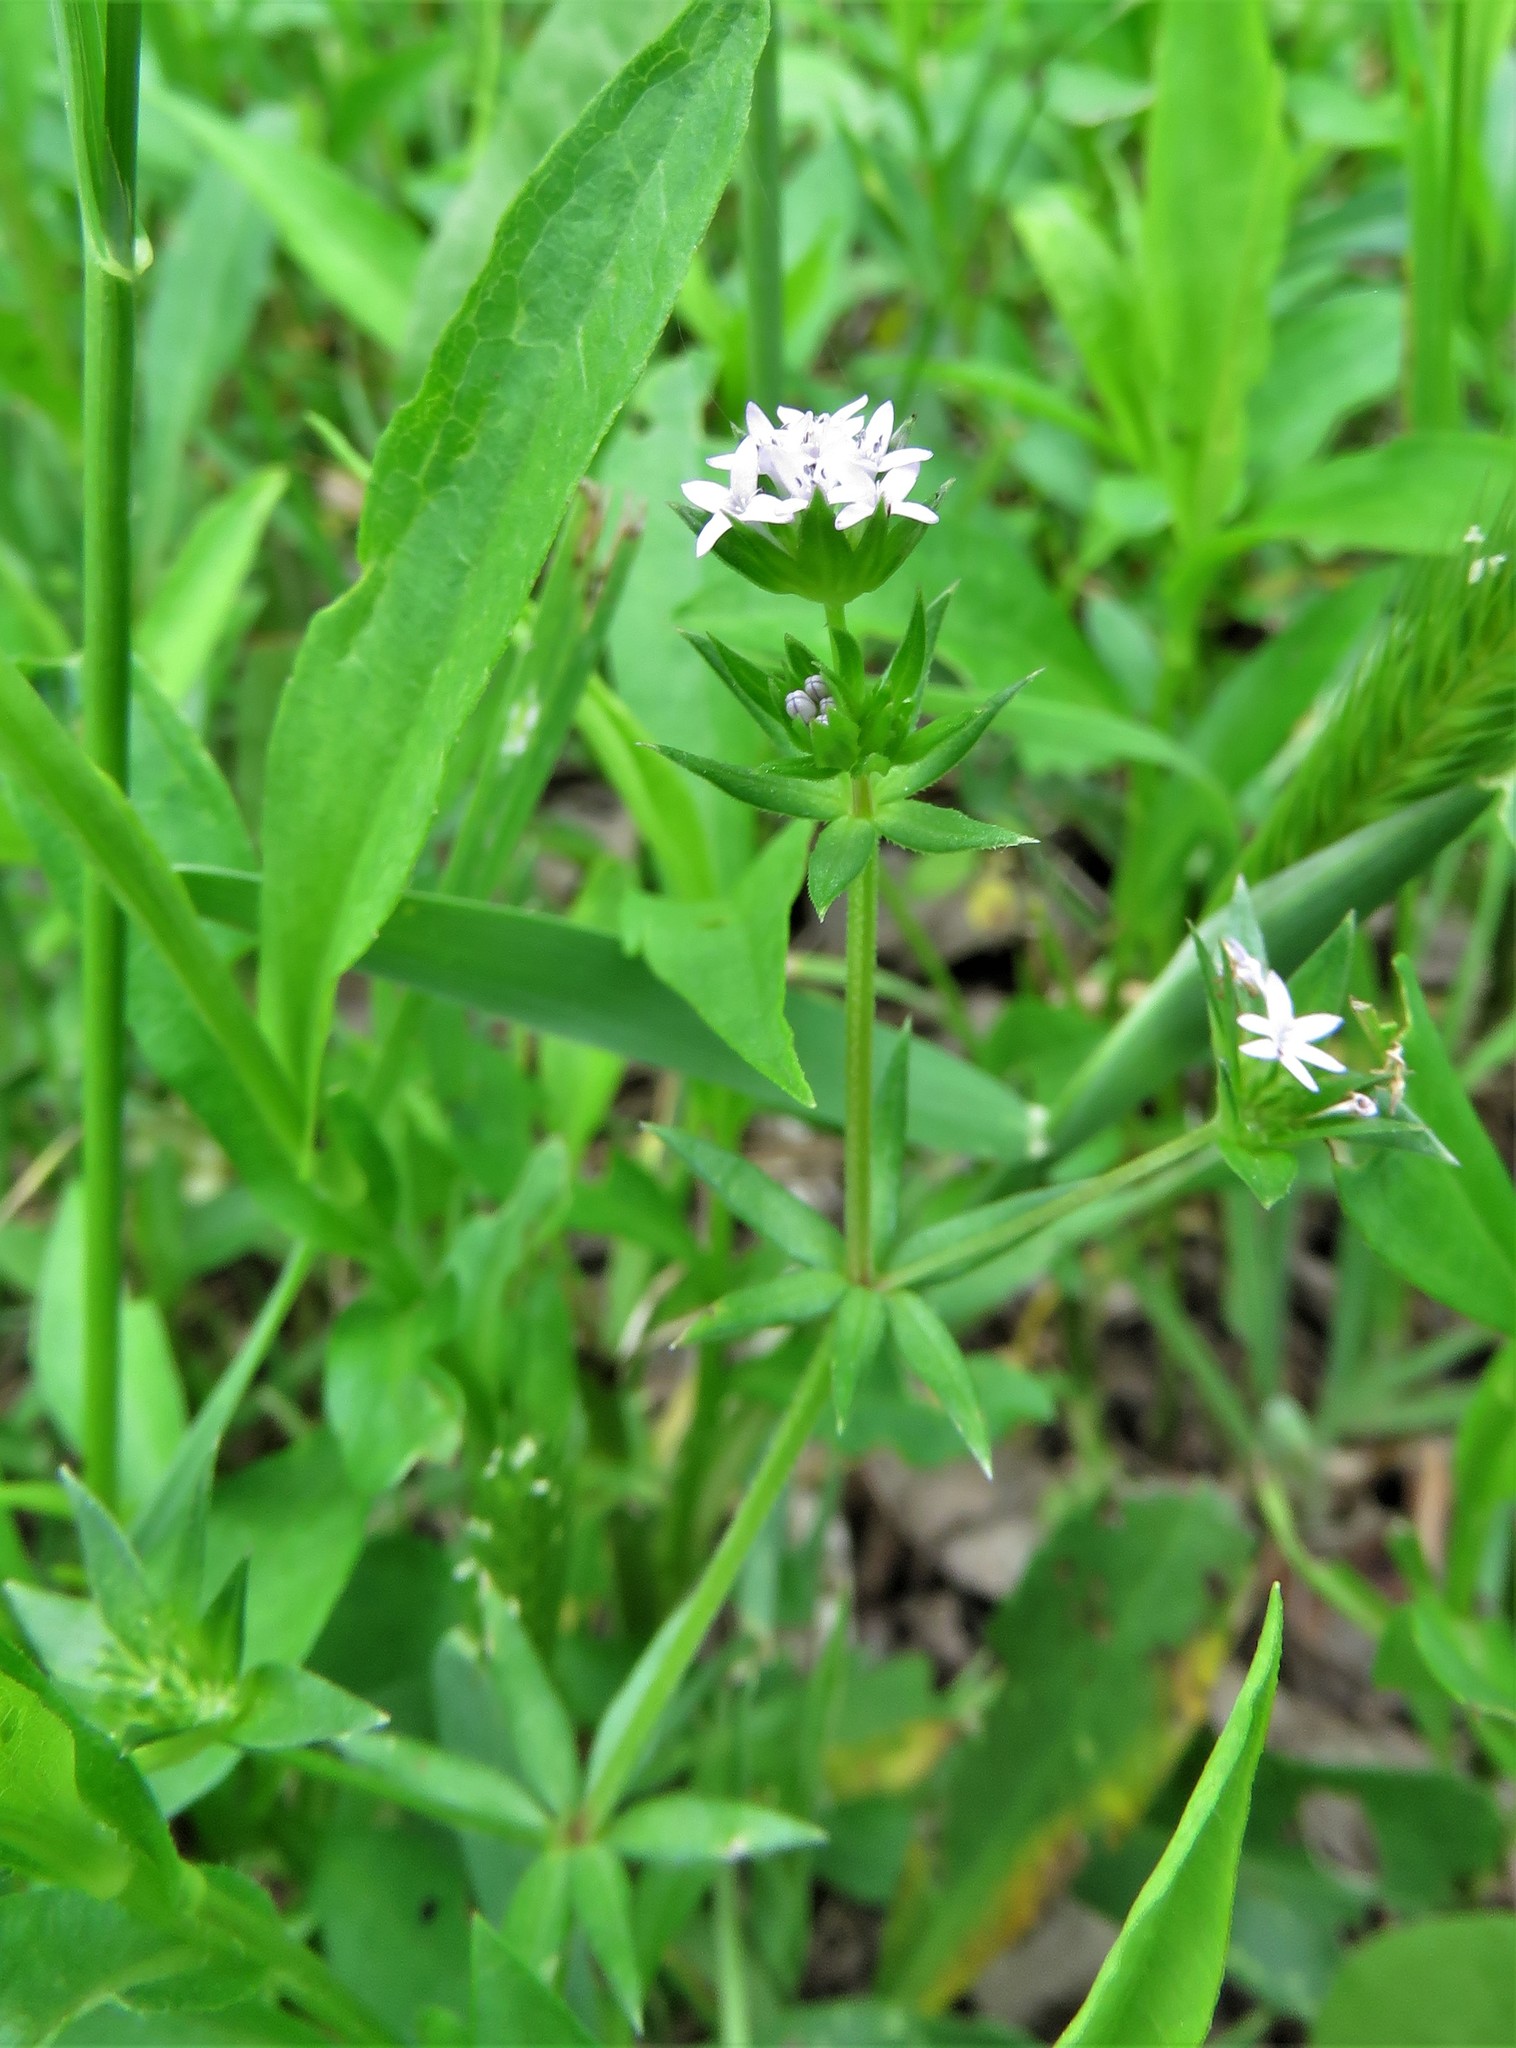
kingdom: Plantae
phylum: Tracheophyta
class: Magnoliopsida
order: Gentianales
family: Rubiaceae
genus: Sherardia
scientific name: Sherardia arvensis
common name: Field madder
